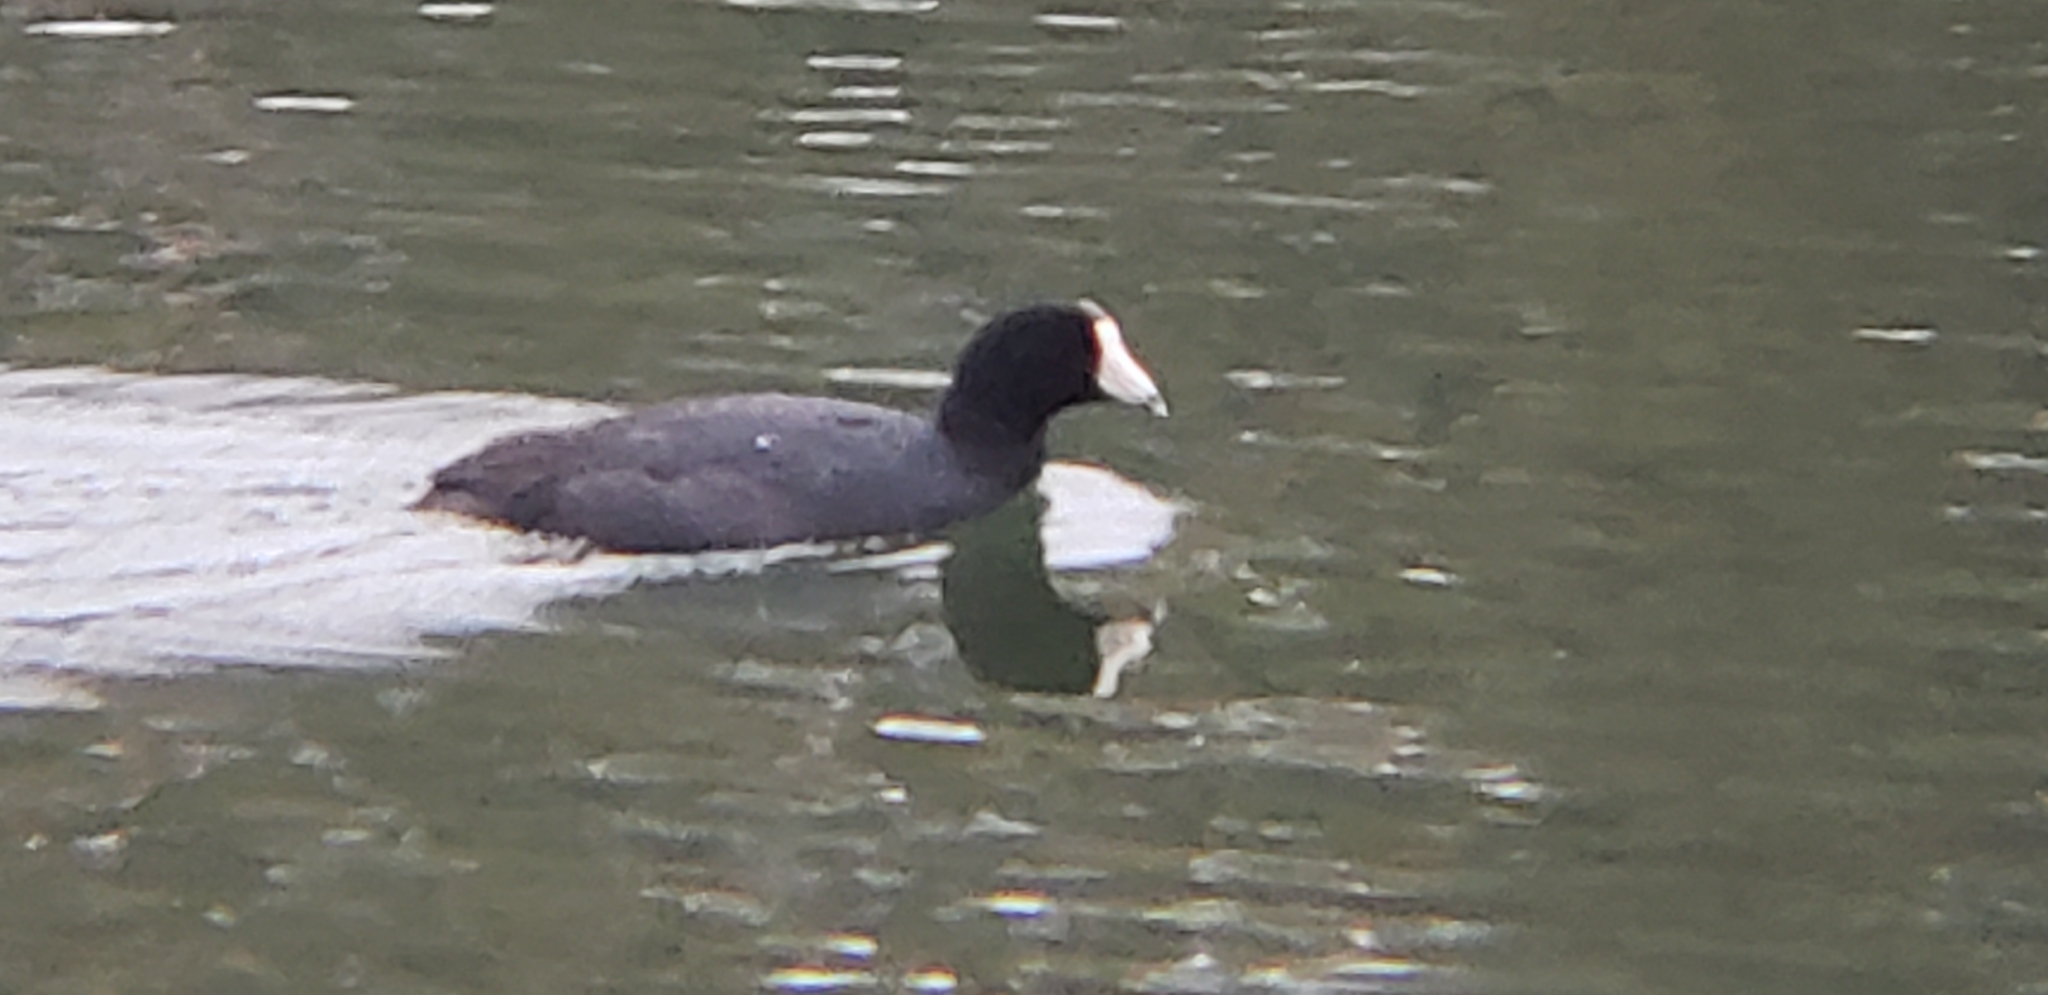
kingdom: Animalia
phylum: Chordata
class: Aves
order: Gruiformes
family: Rallidae
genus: Fulica
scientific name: Fulica americana
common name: American coot
